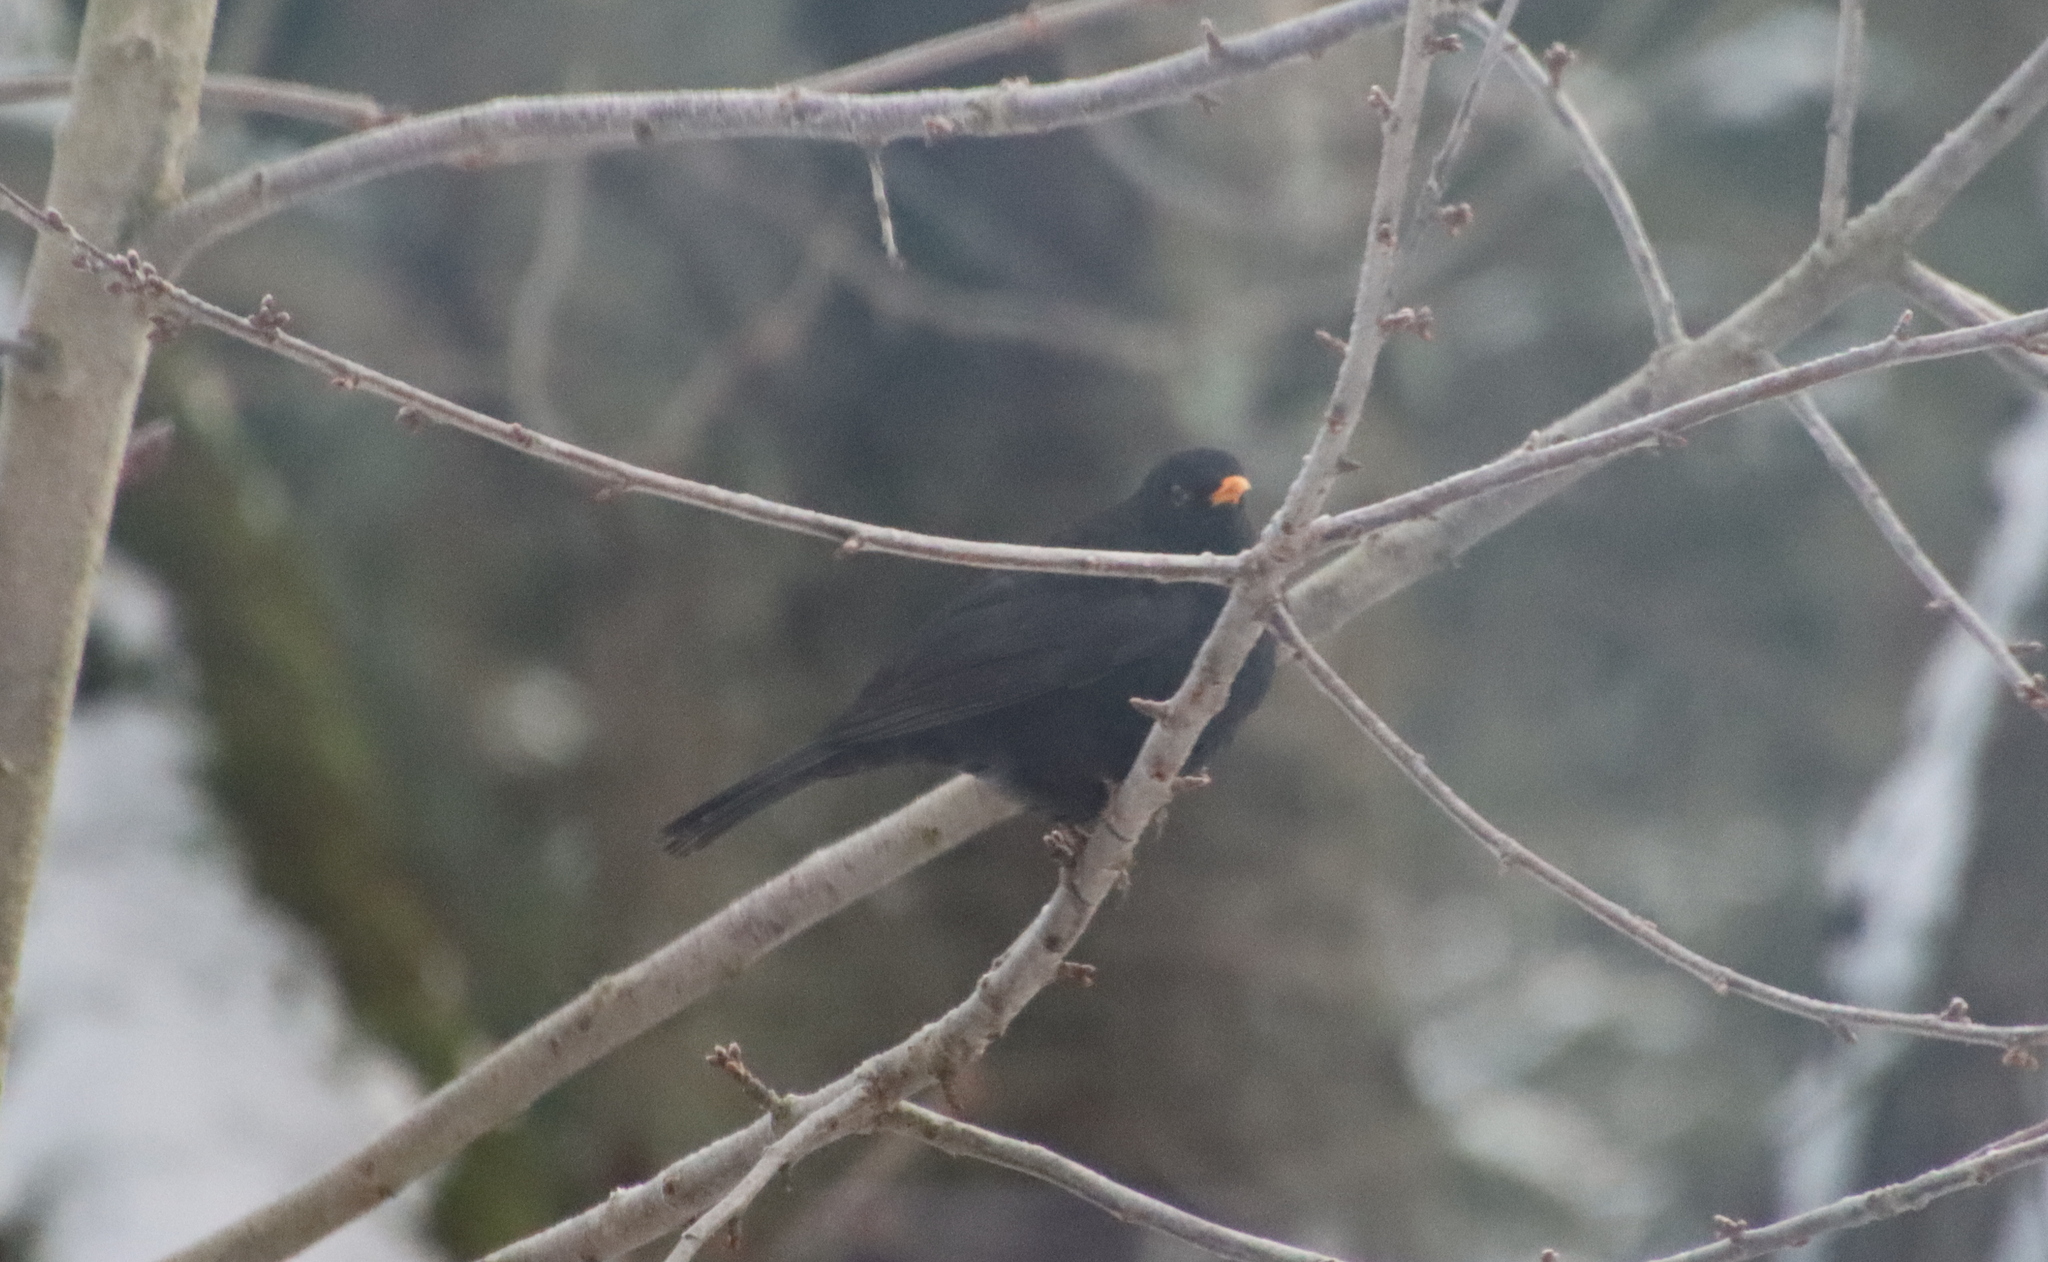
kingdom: Animalia
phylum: Chordata
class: Aves
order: Passeriformes
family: Turdidae
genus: Turdus
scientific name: Turdus merula
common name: Common blackbird
